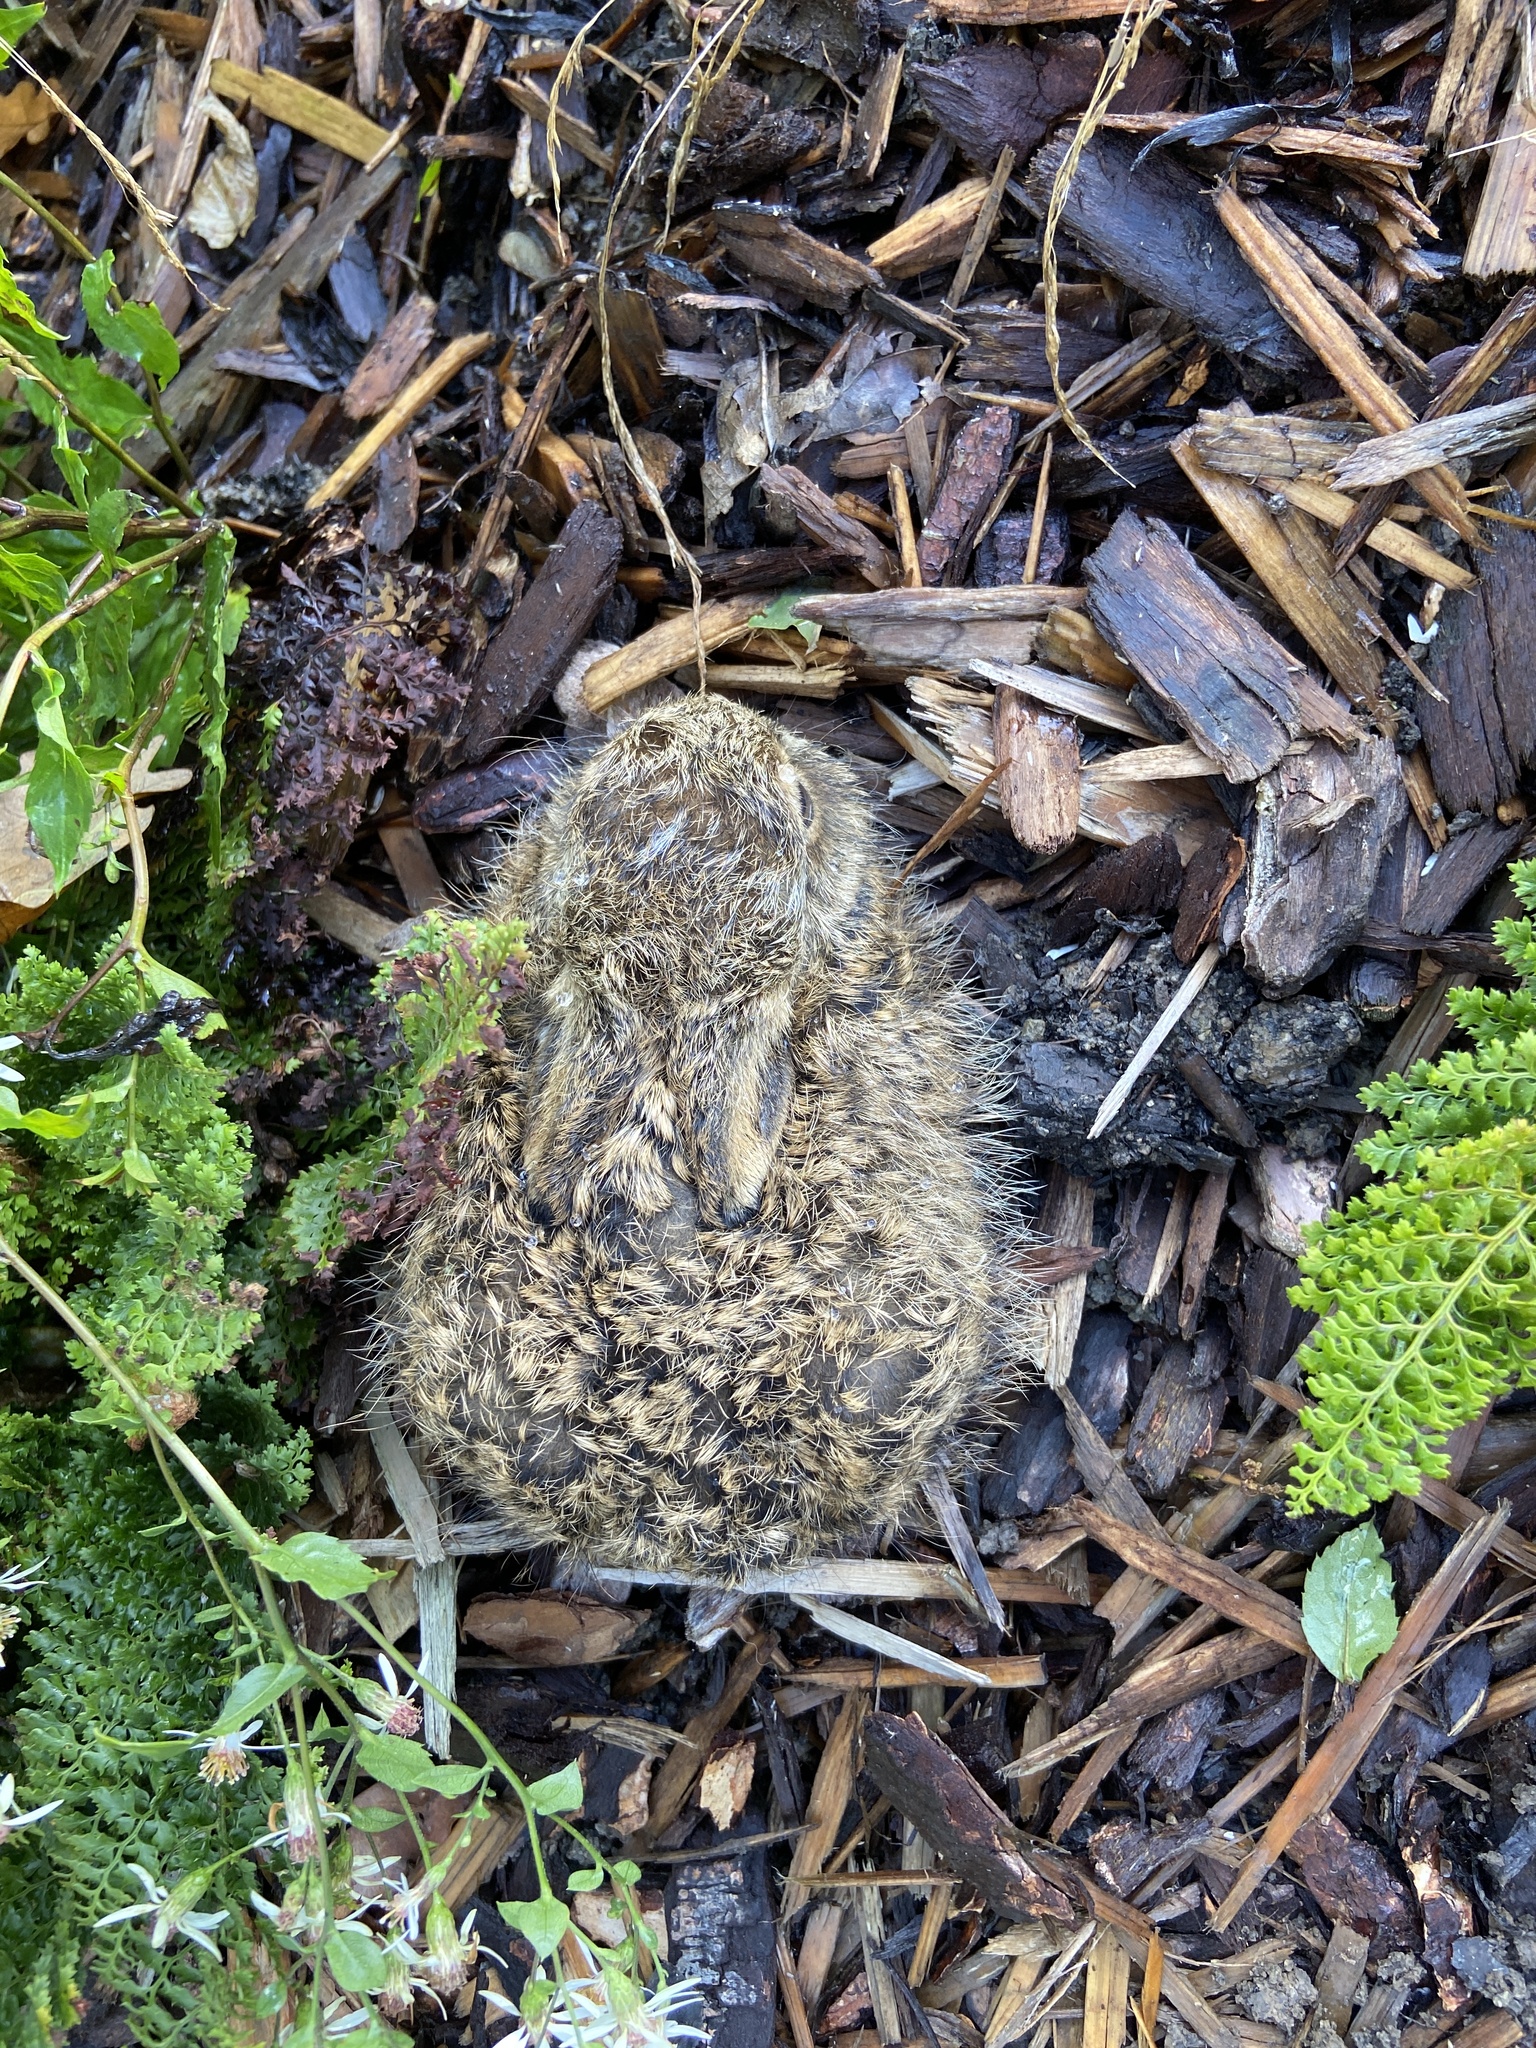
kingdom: Animalia
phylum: Chordata
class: Mammalia
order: Lagomorpha
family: Leporidae
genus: Lepus
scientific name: Lepus europaeus
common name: European hare
